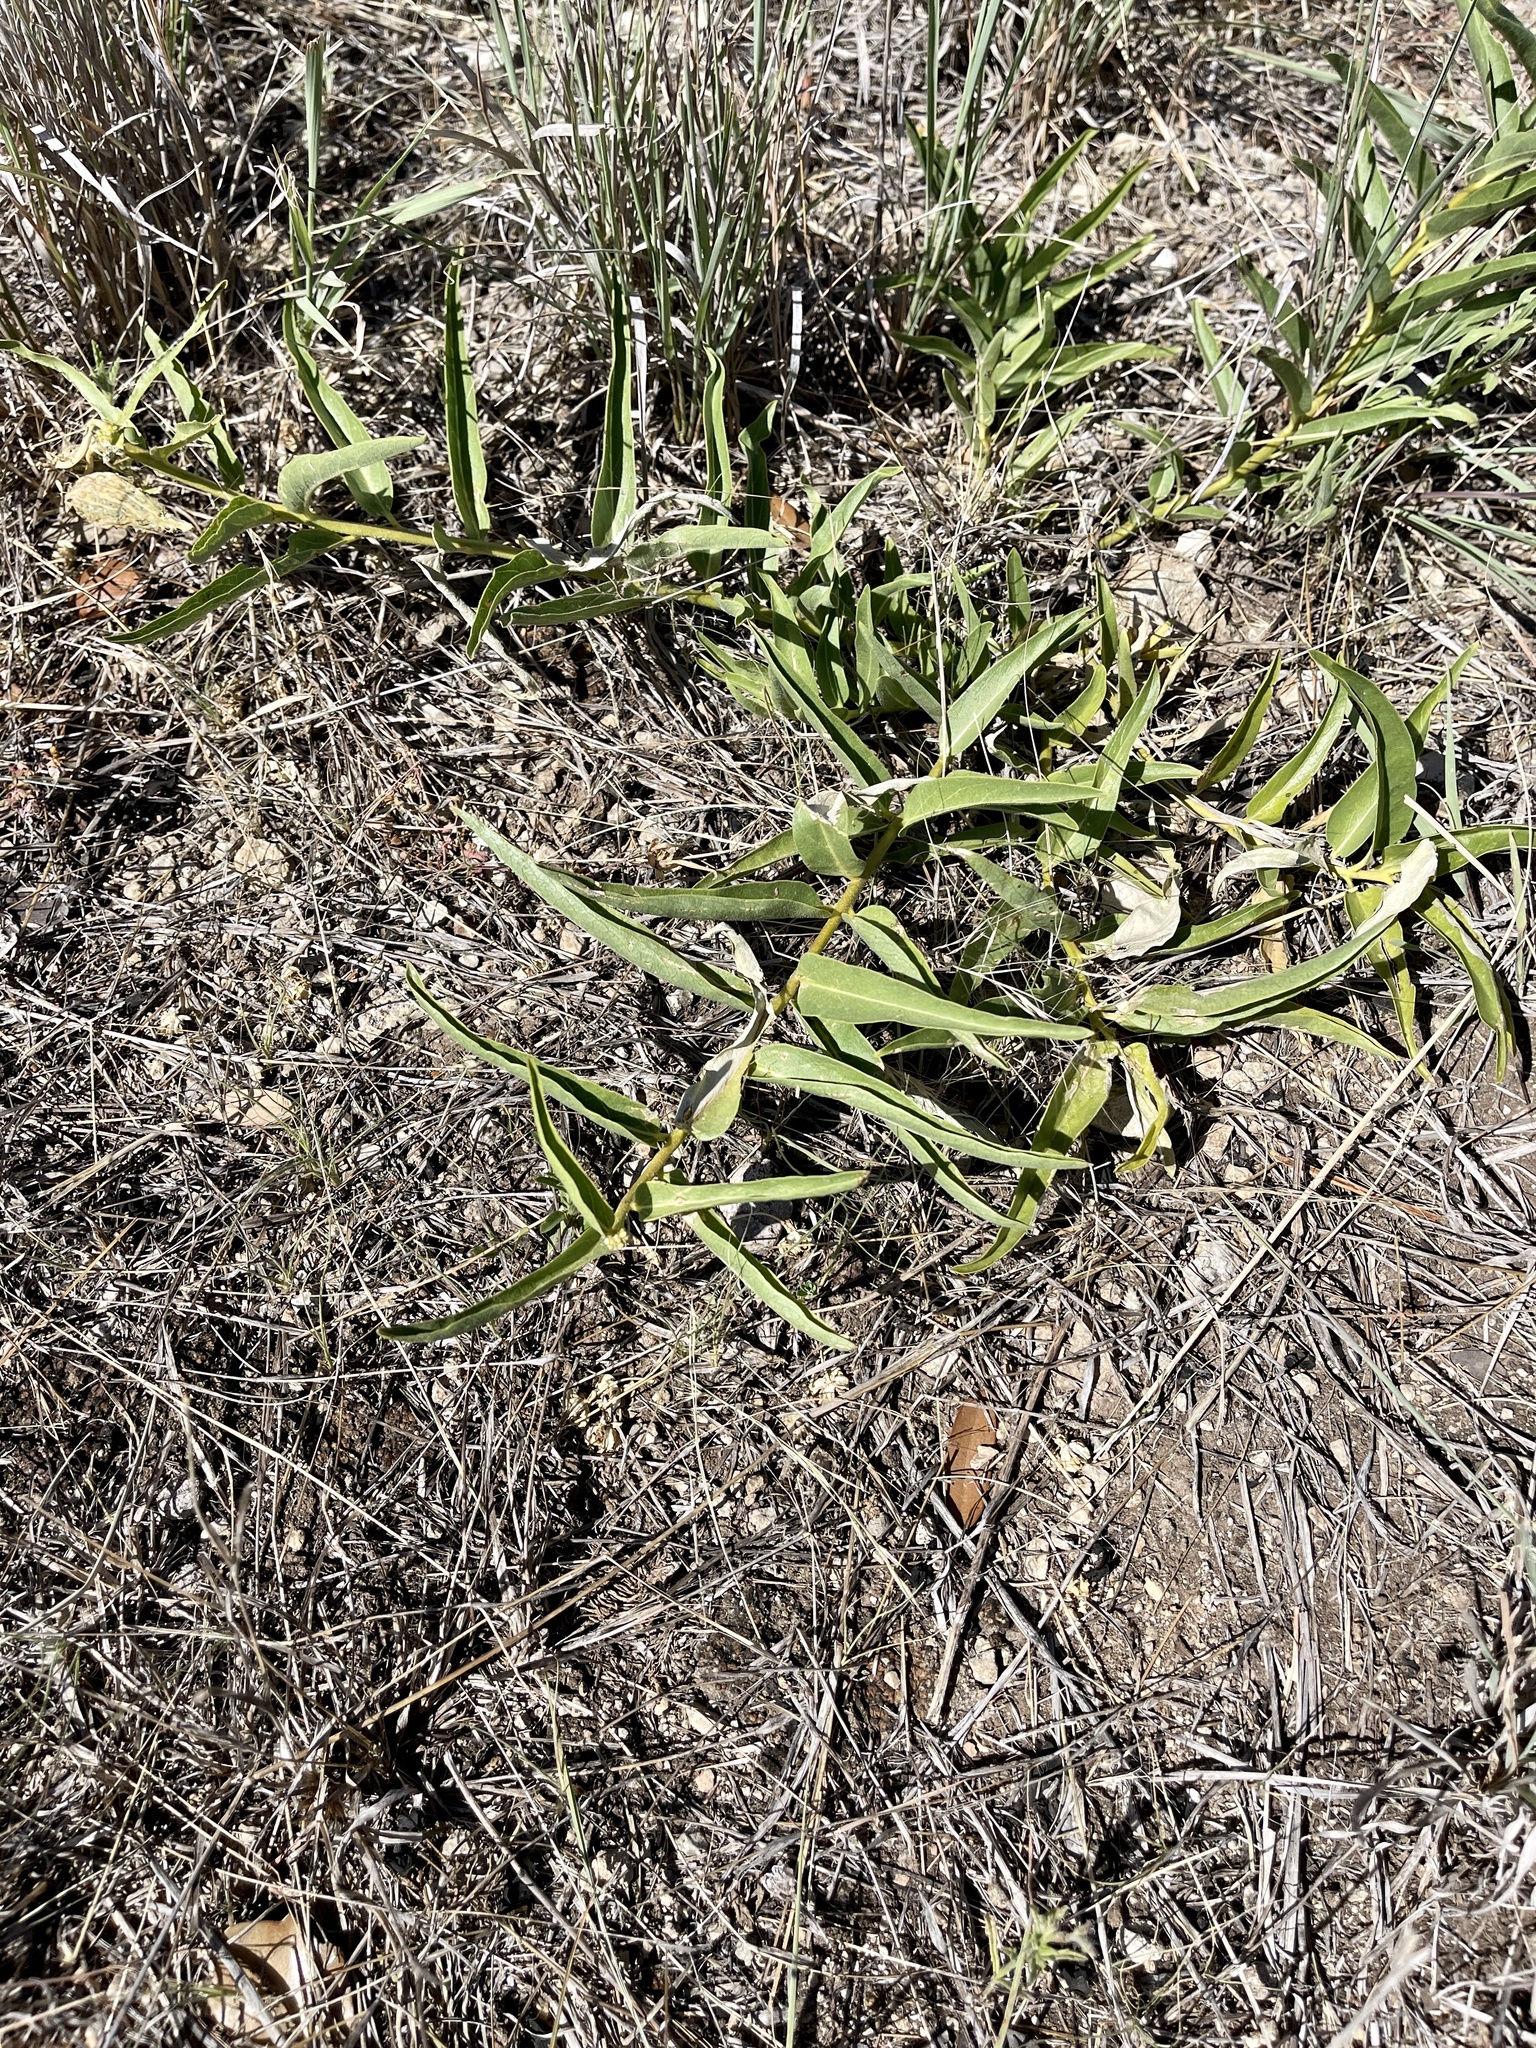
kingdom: Plantae
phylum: Tracheophyta
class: Magnoliopsida
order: Gentianales
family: Apocynaceae
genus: Asclepias
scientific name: Asclepias asperula
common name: Antelope horns
